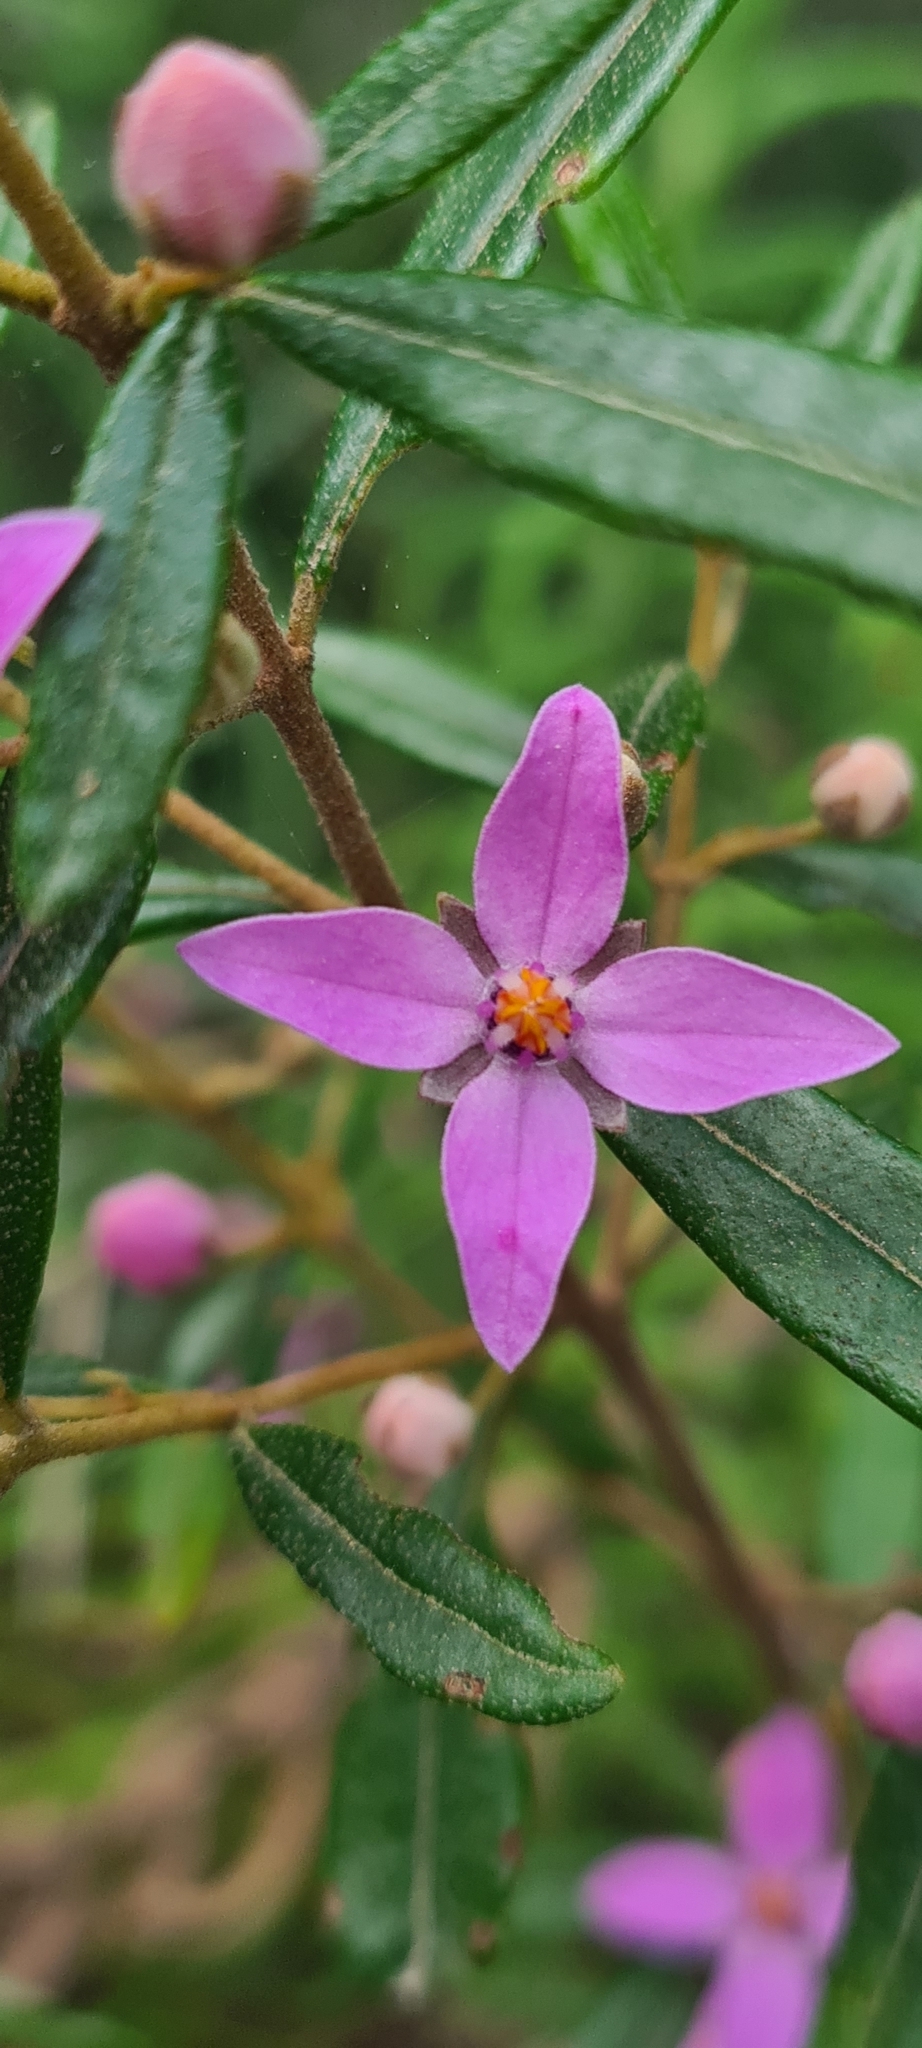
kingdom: Plantae
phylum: Tracheophyta
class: Magnoliopsida
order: Sapindales
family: Rutaceae
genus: Boronia
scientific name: Boronia ledifolia
